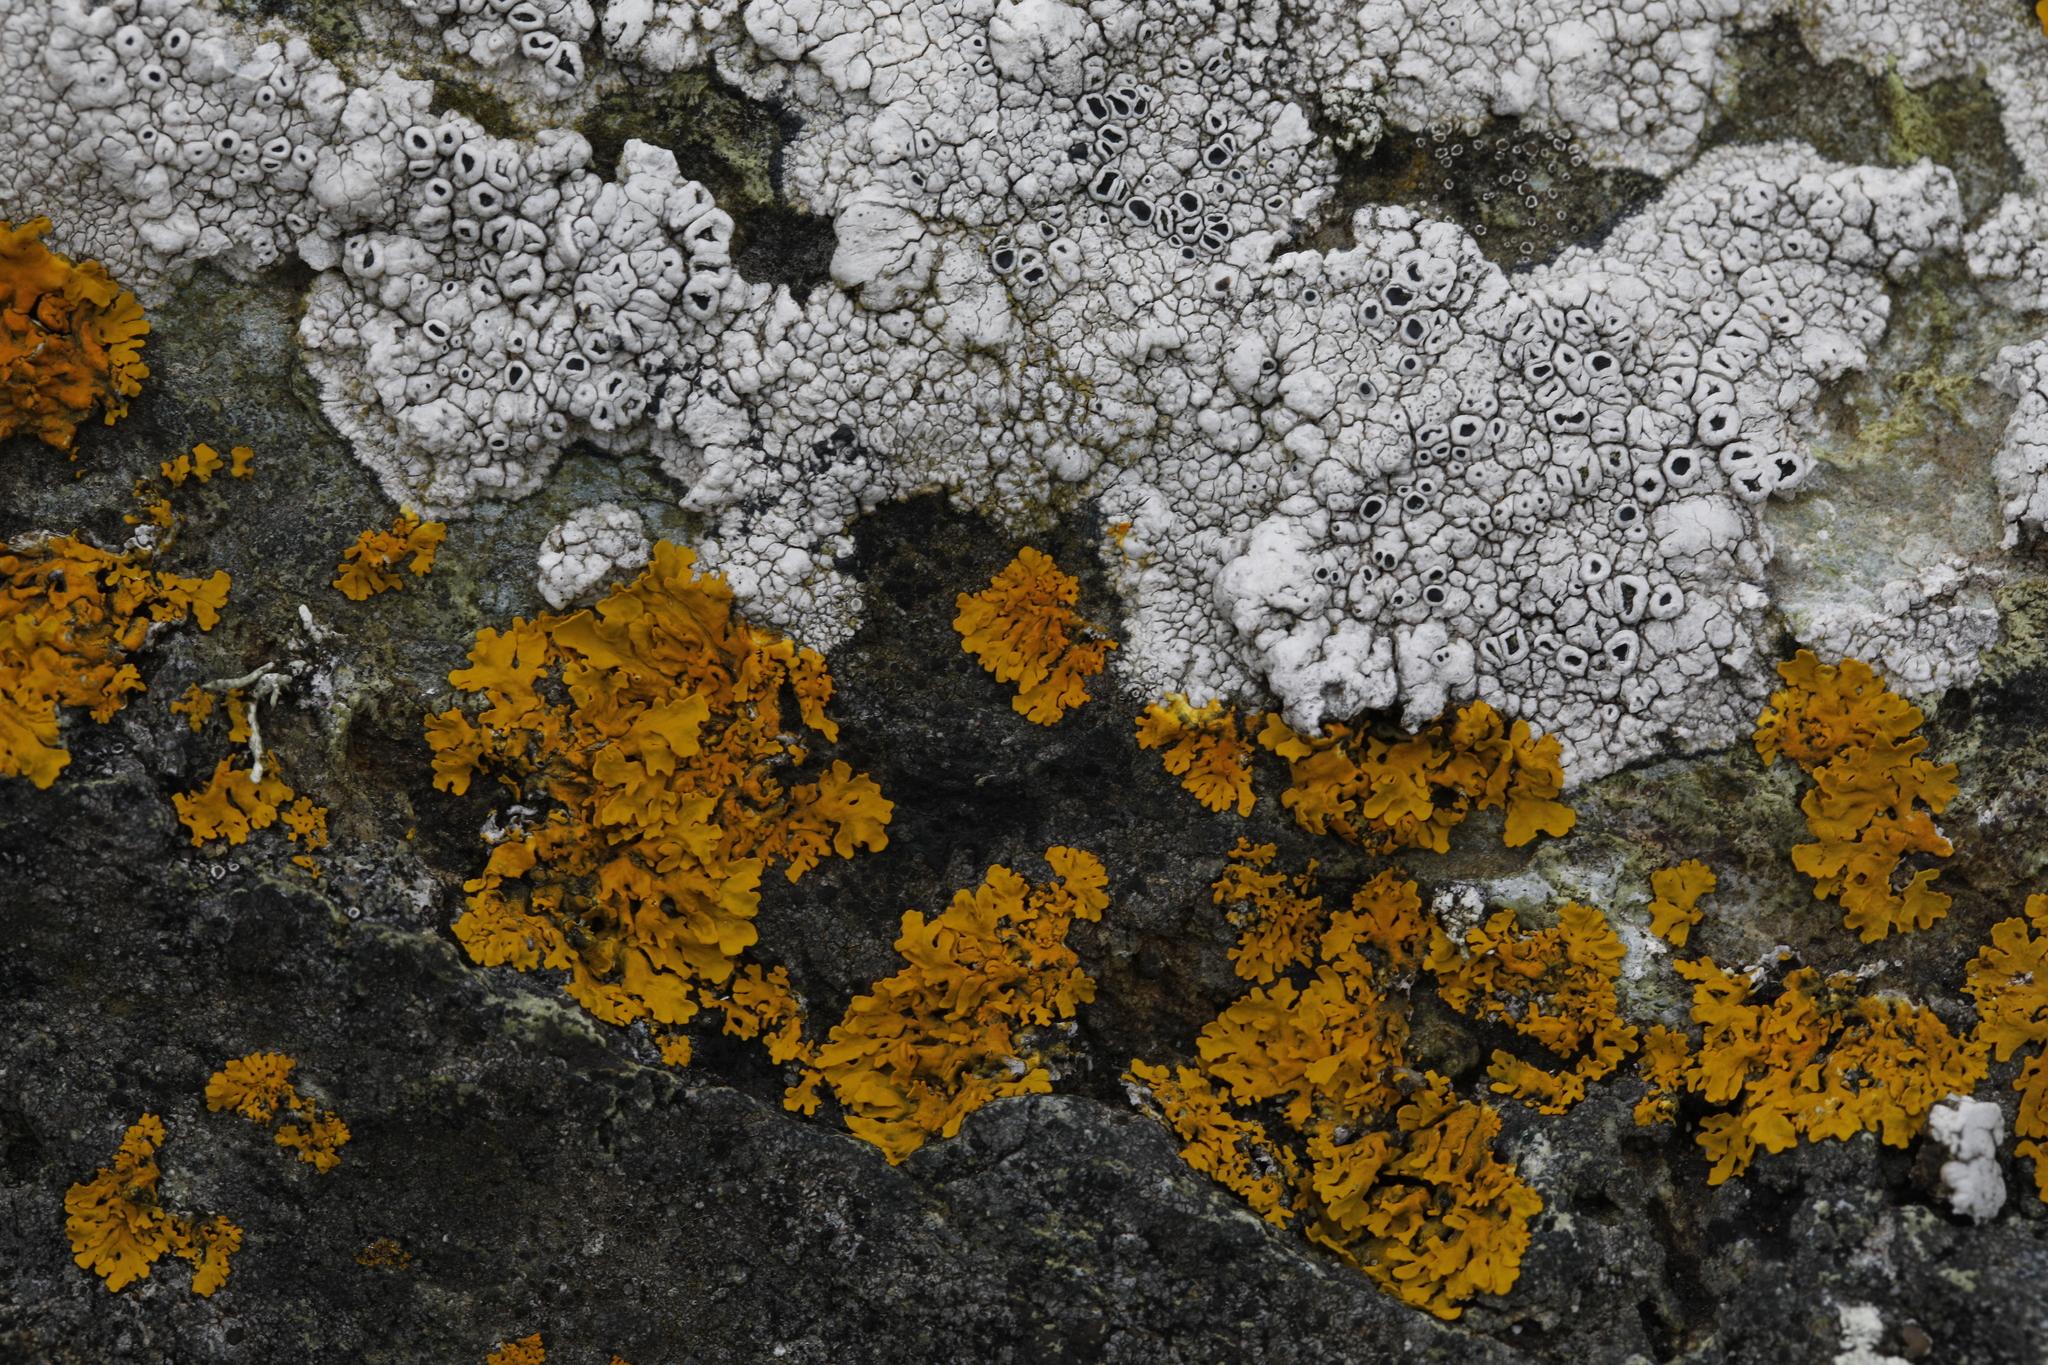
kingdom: Fungi
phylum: Ascomycota
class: Lecanoromycetes
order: Teloschistales
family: Teloschistaceae
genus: Xanthoria
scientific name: Xanthoria parietina
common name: Common orange lichen
